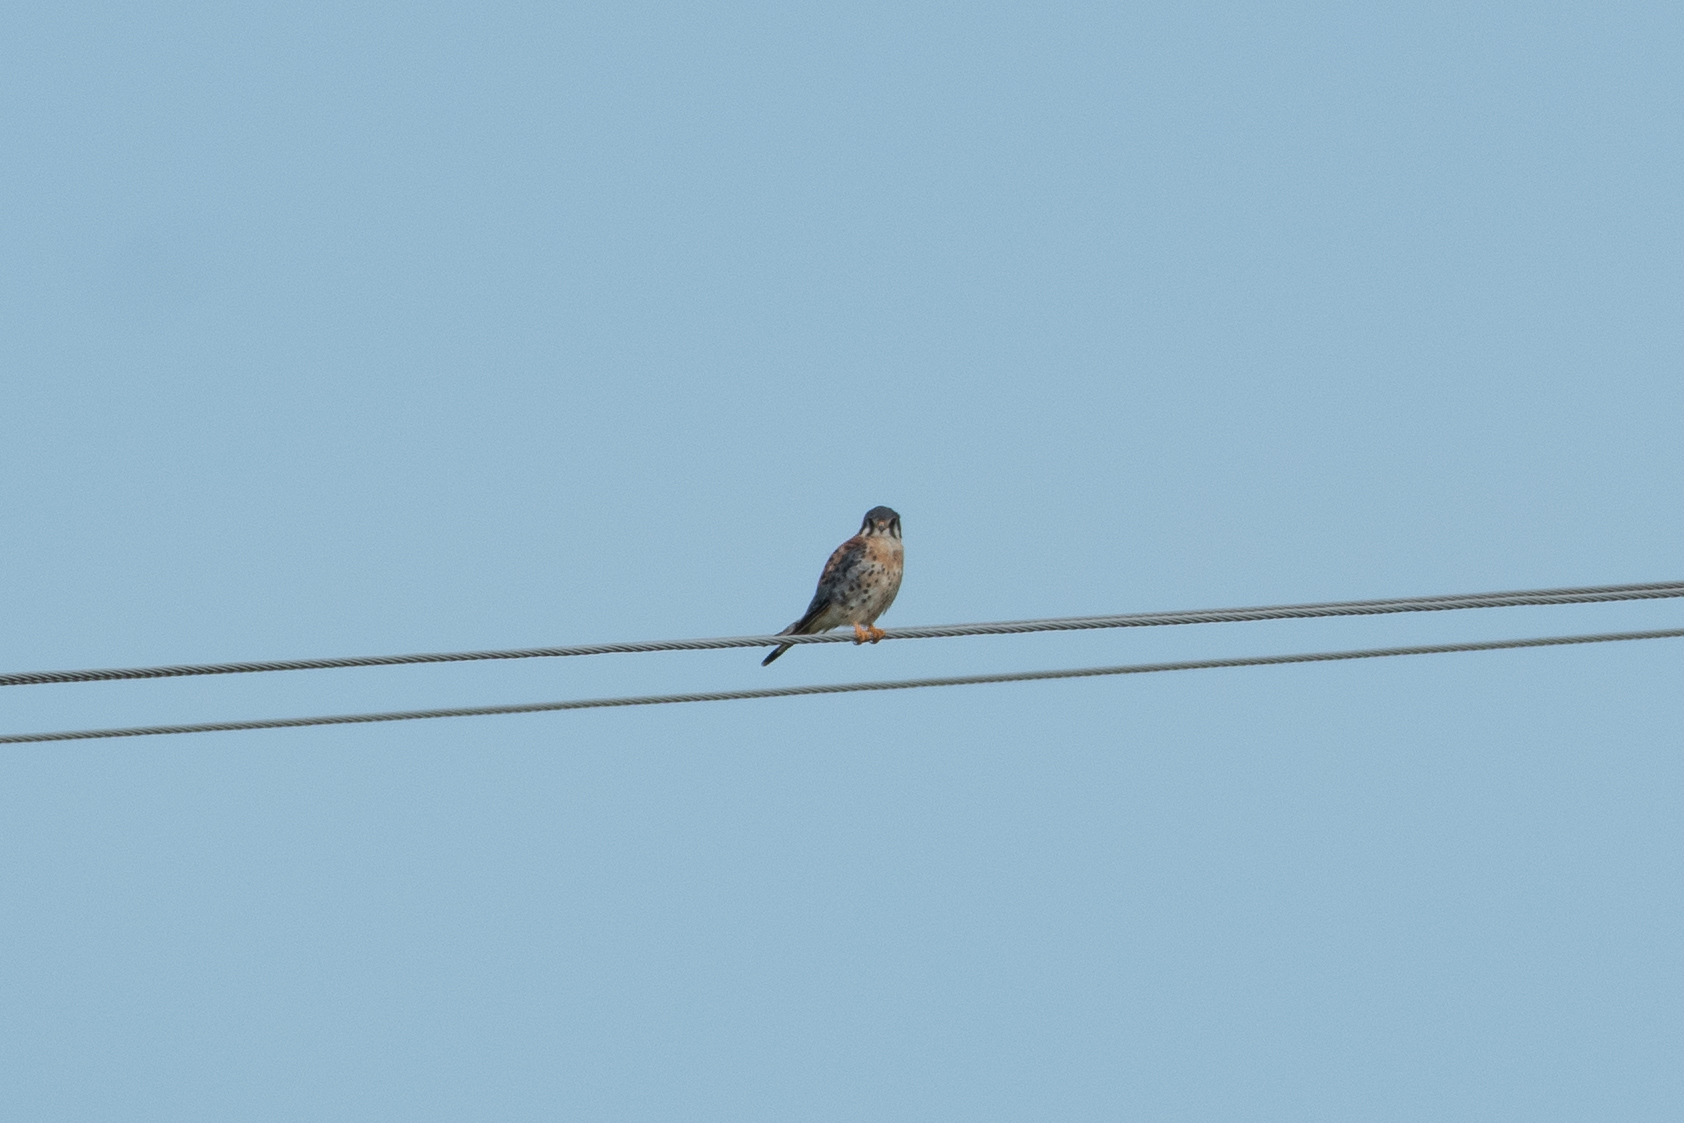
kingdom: Animalia
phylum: Chordata
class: Aves
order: Falconiformes
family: Falconidae
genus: Falco
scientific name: Falco sparverius
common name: American kestrel
